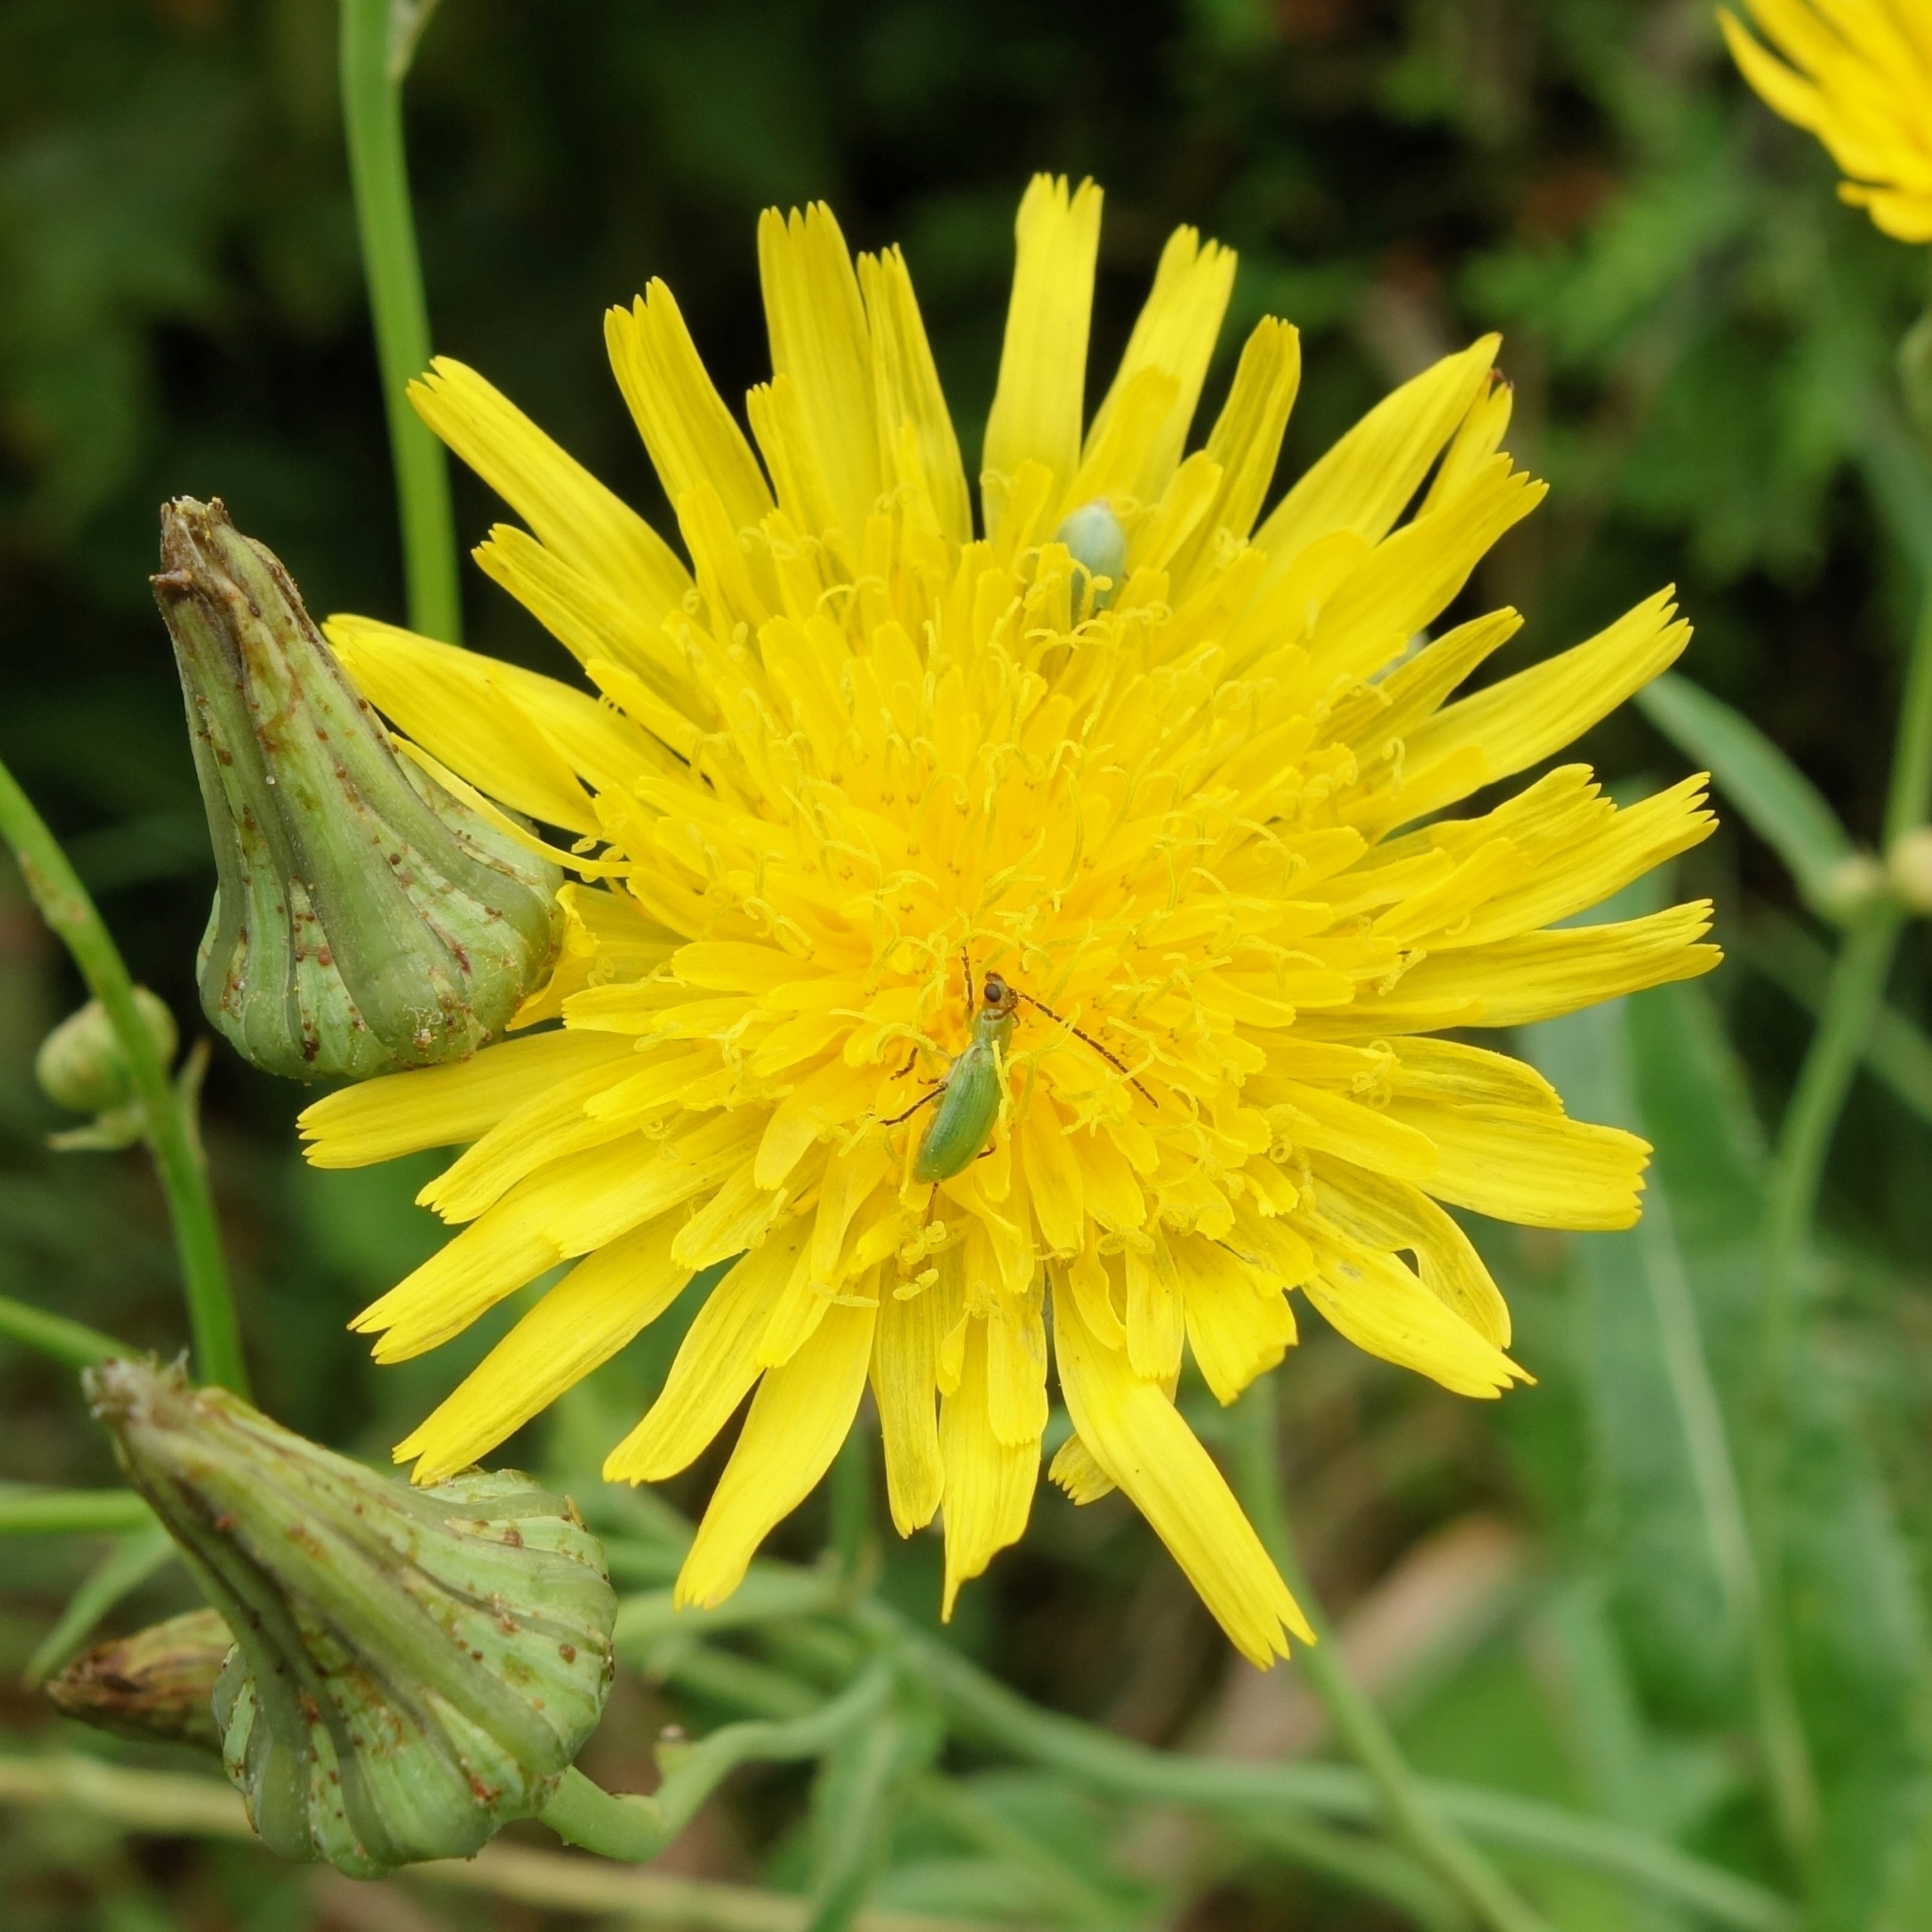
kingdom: Animalia
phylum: Arthropoda
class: Insecta
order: Coleoptera
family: Chrysomelidae
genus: Diabrotica
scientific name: Diabrotica barberi
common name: Northern corn rootworm
